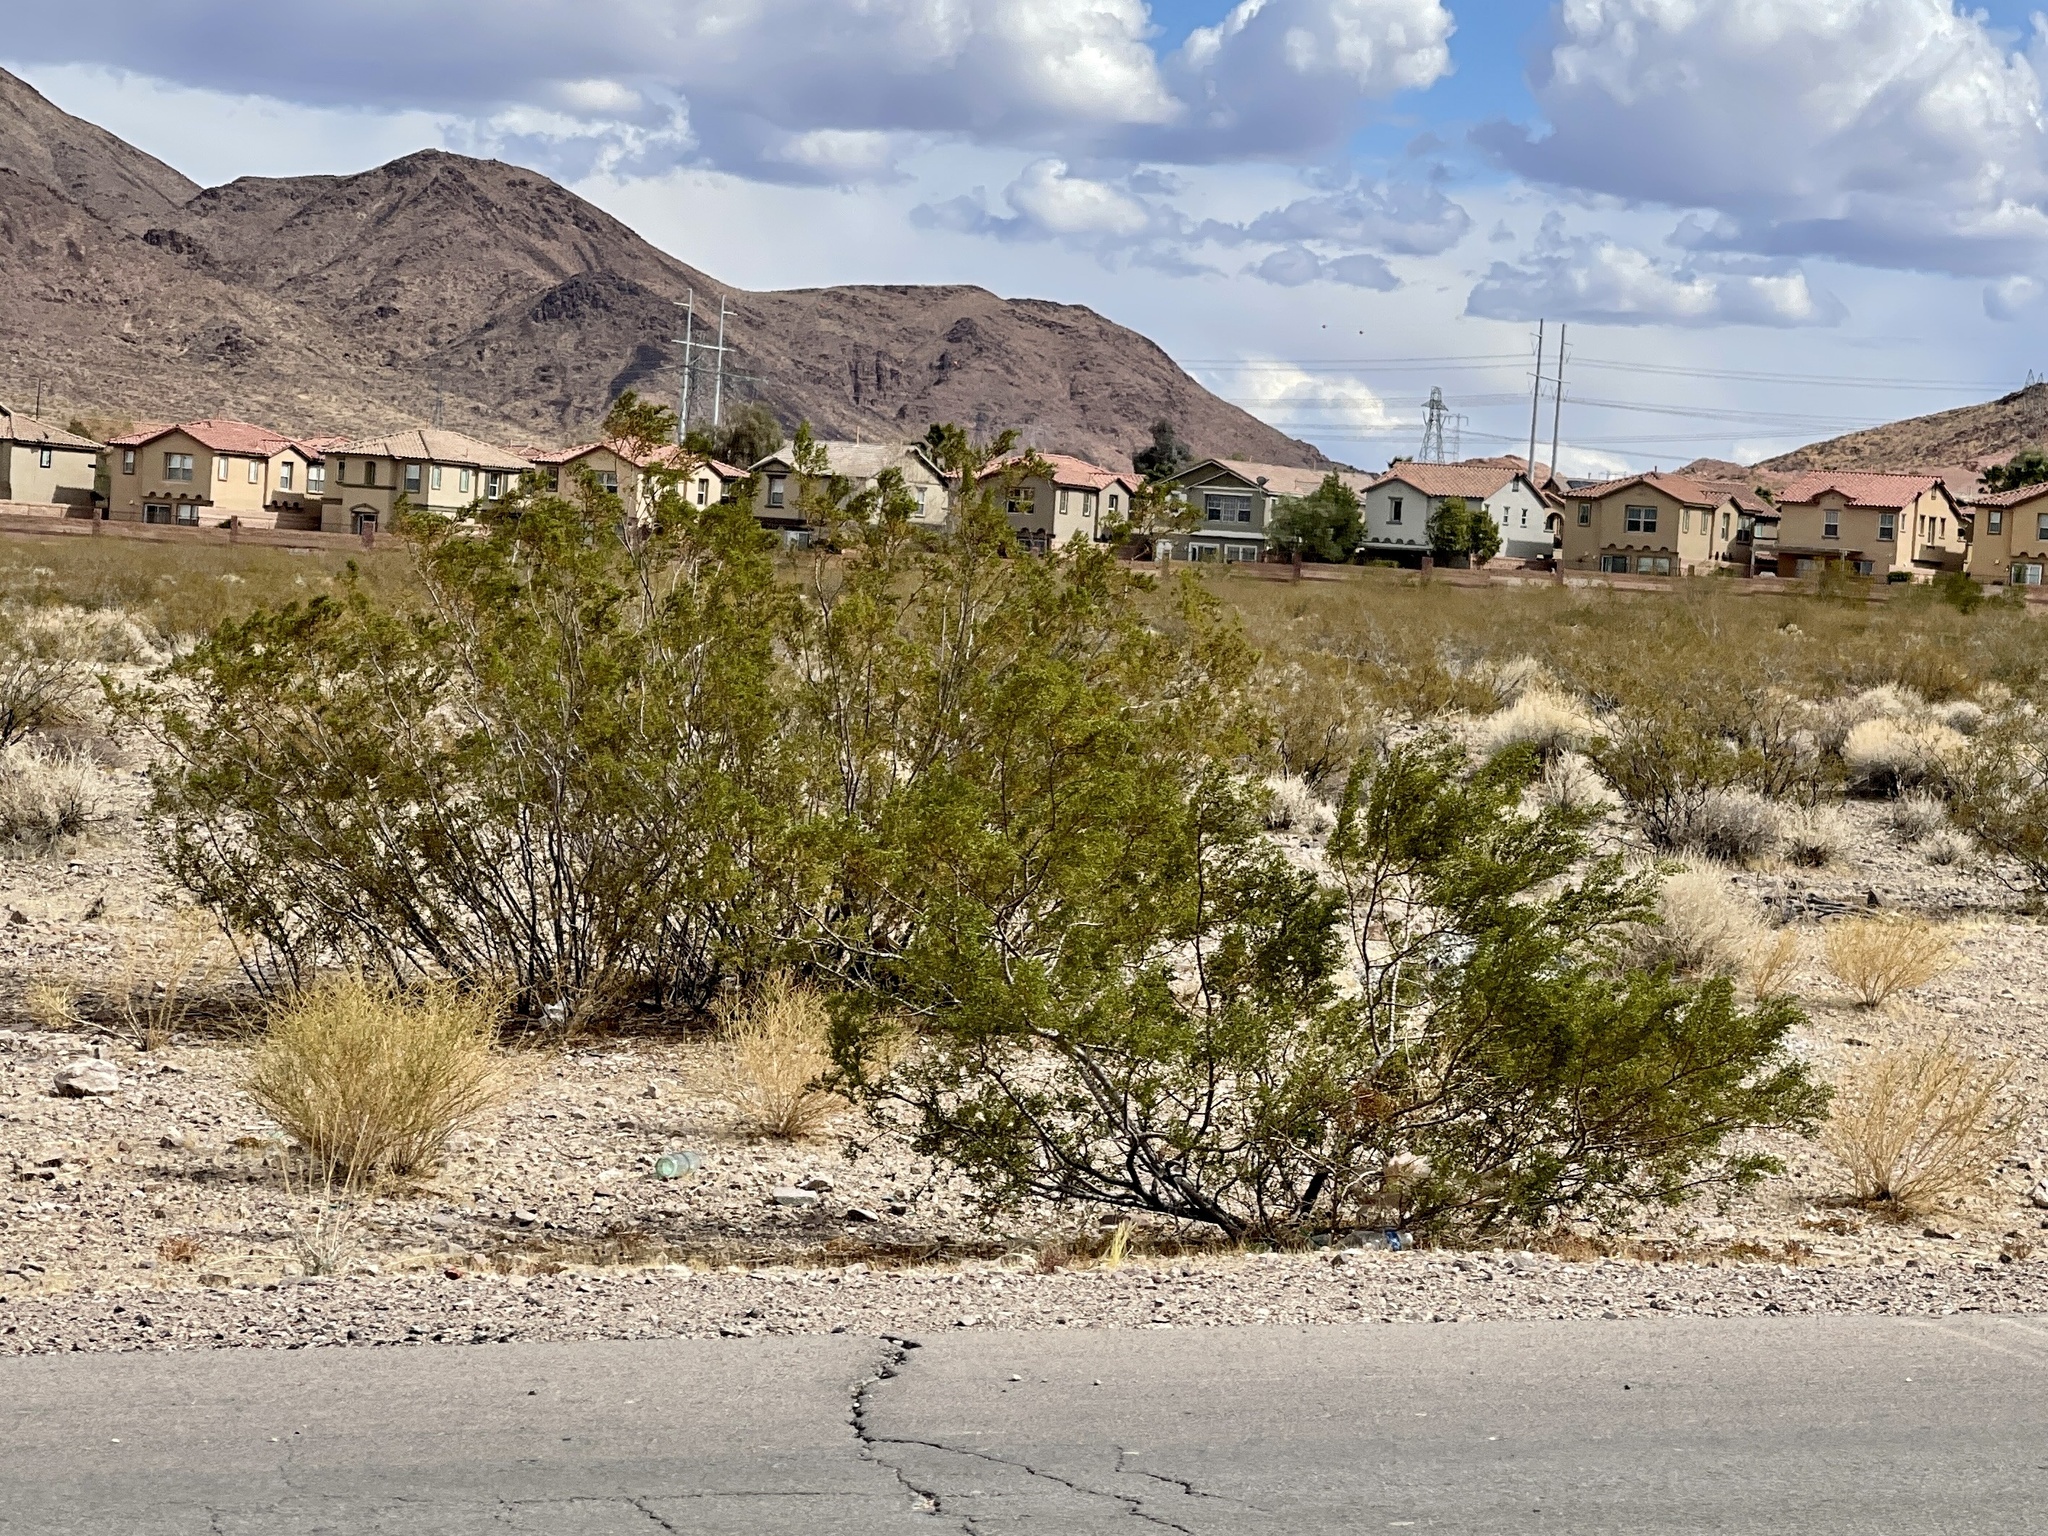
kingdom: Plantae
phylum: Tracheophyta
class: Magnoliopsida
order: Zygophyllales
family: Zygophyllaceae
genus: Larrea
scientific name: Larrea tridentata
